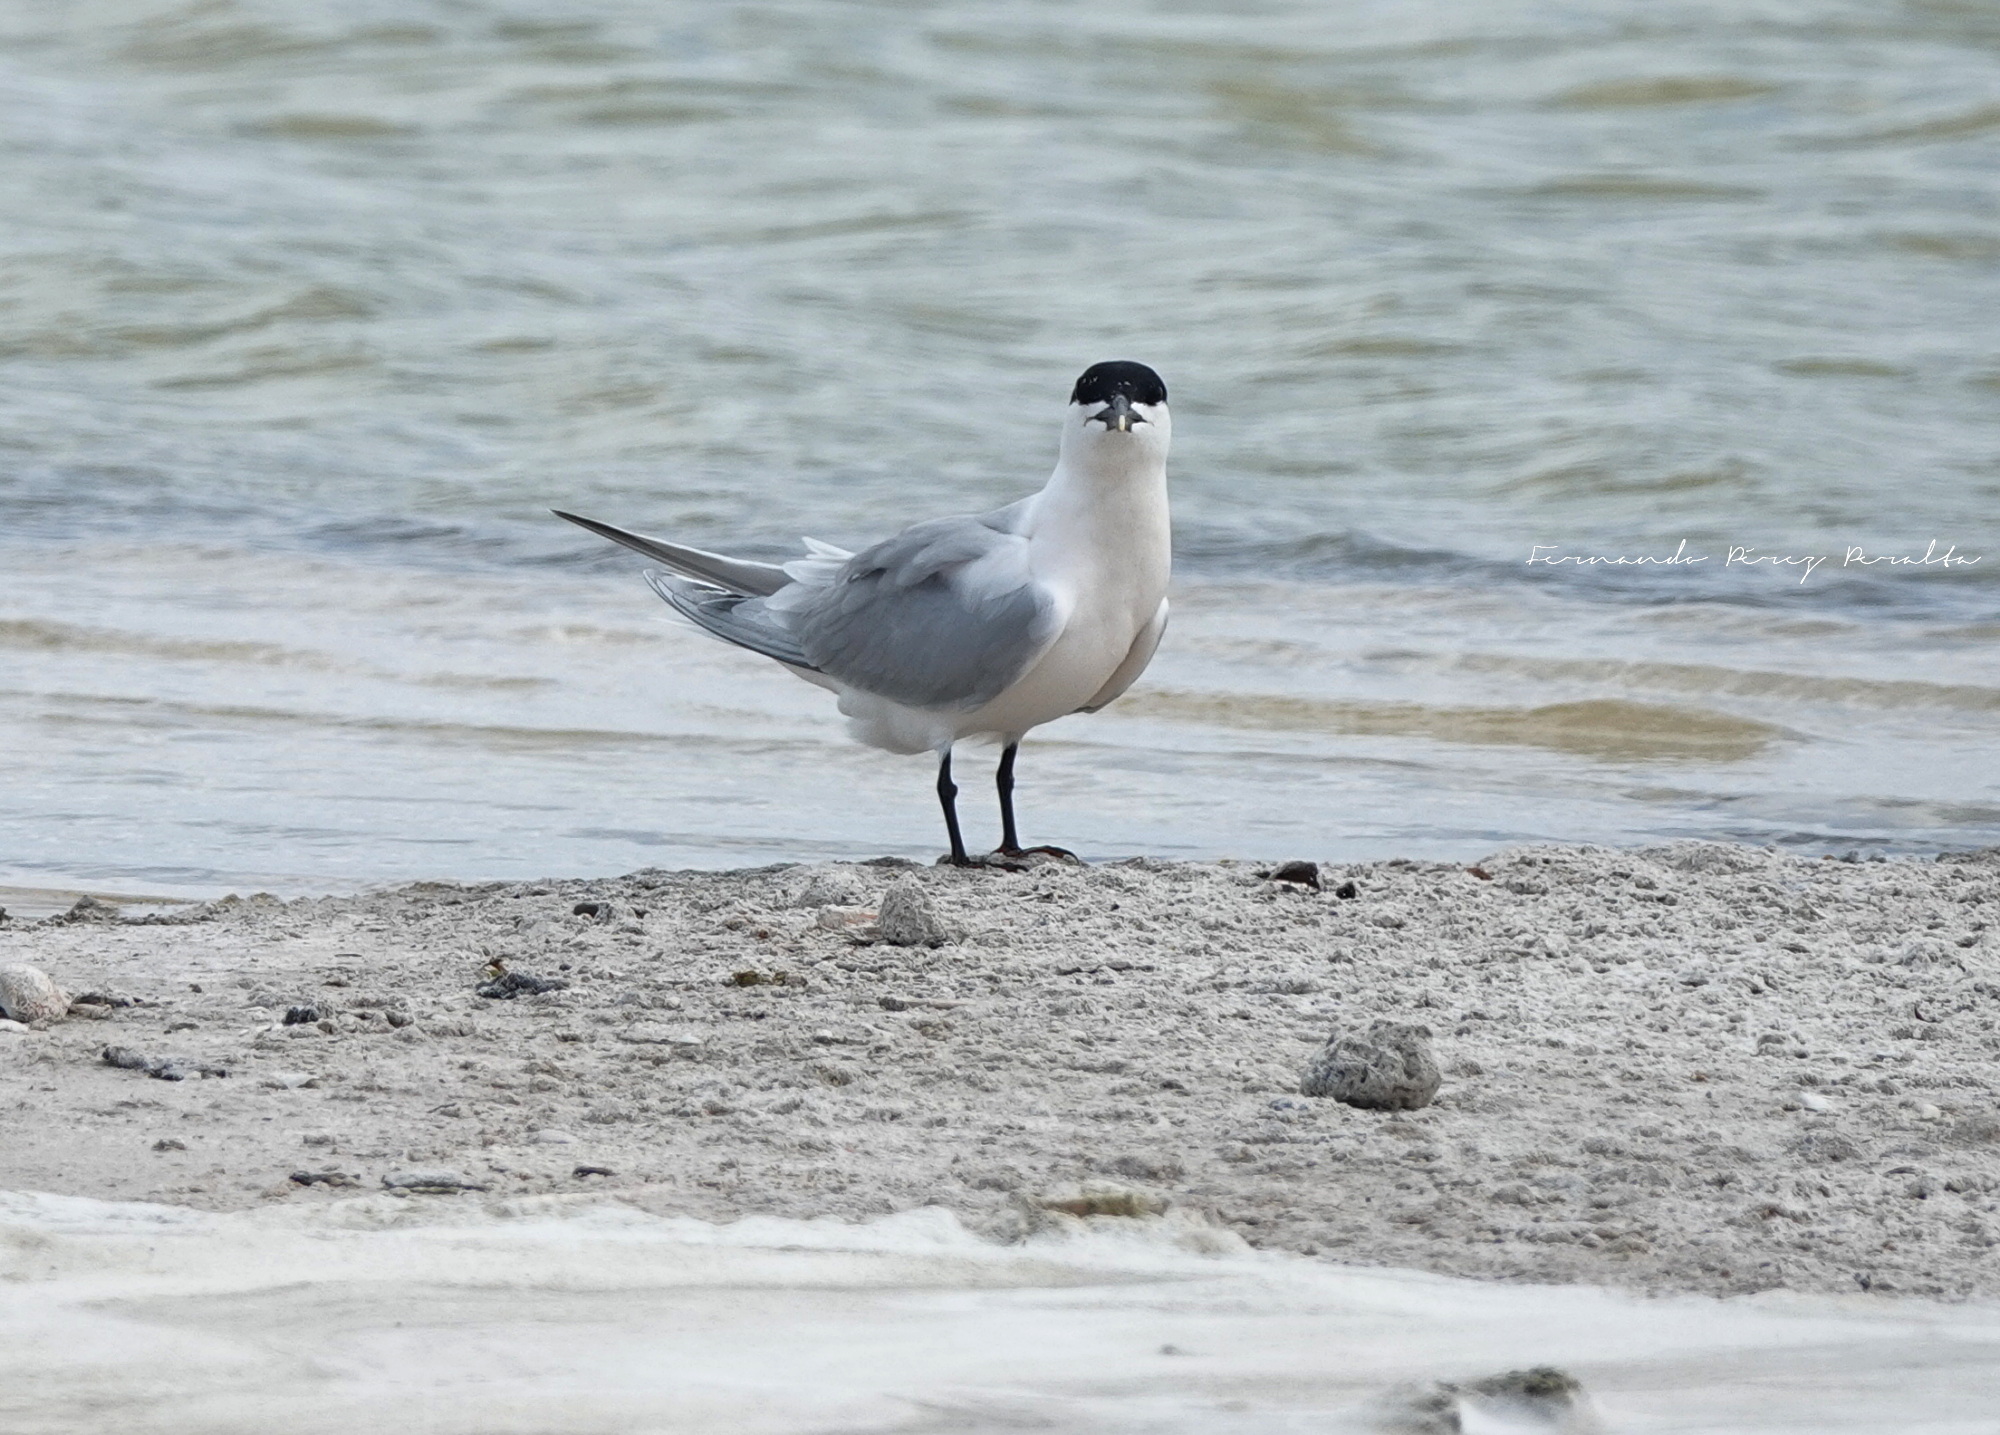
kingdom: Animalia
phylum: Chordata
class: Aves
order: Charadriiformes
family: Laridae
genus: Thalasseus
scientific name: Thalasseus sandvicensis
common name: Sandwich tern
